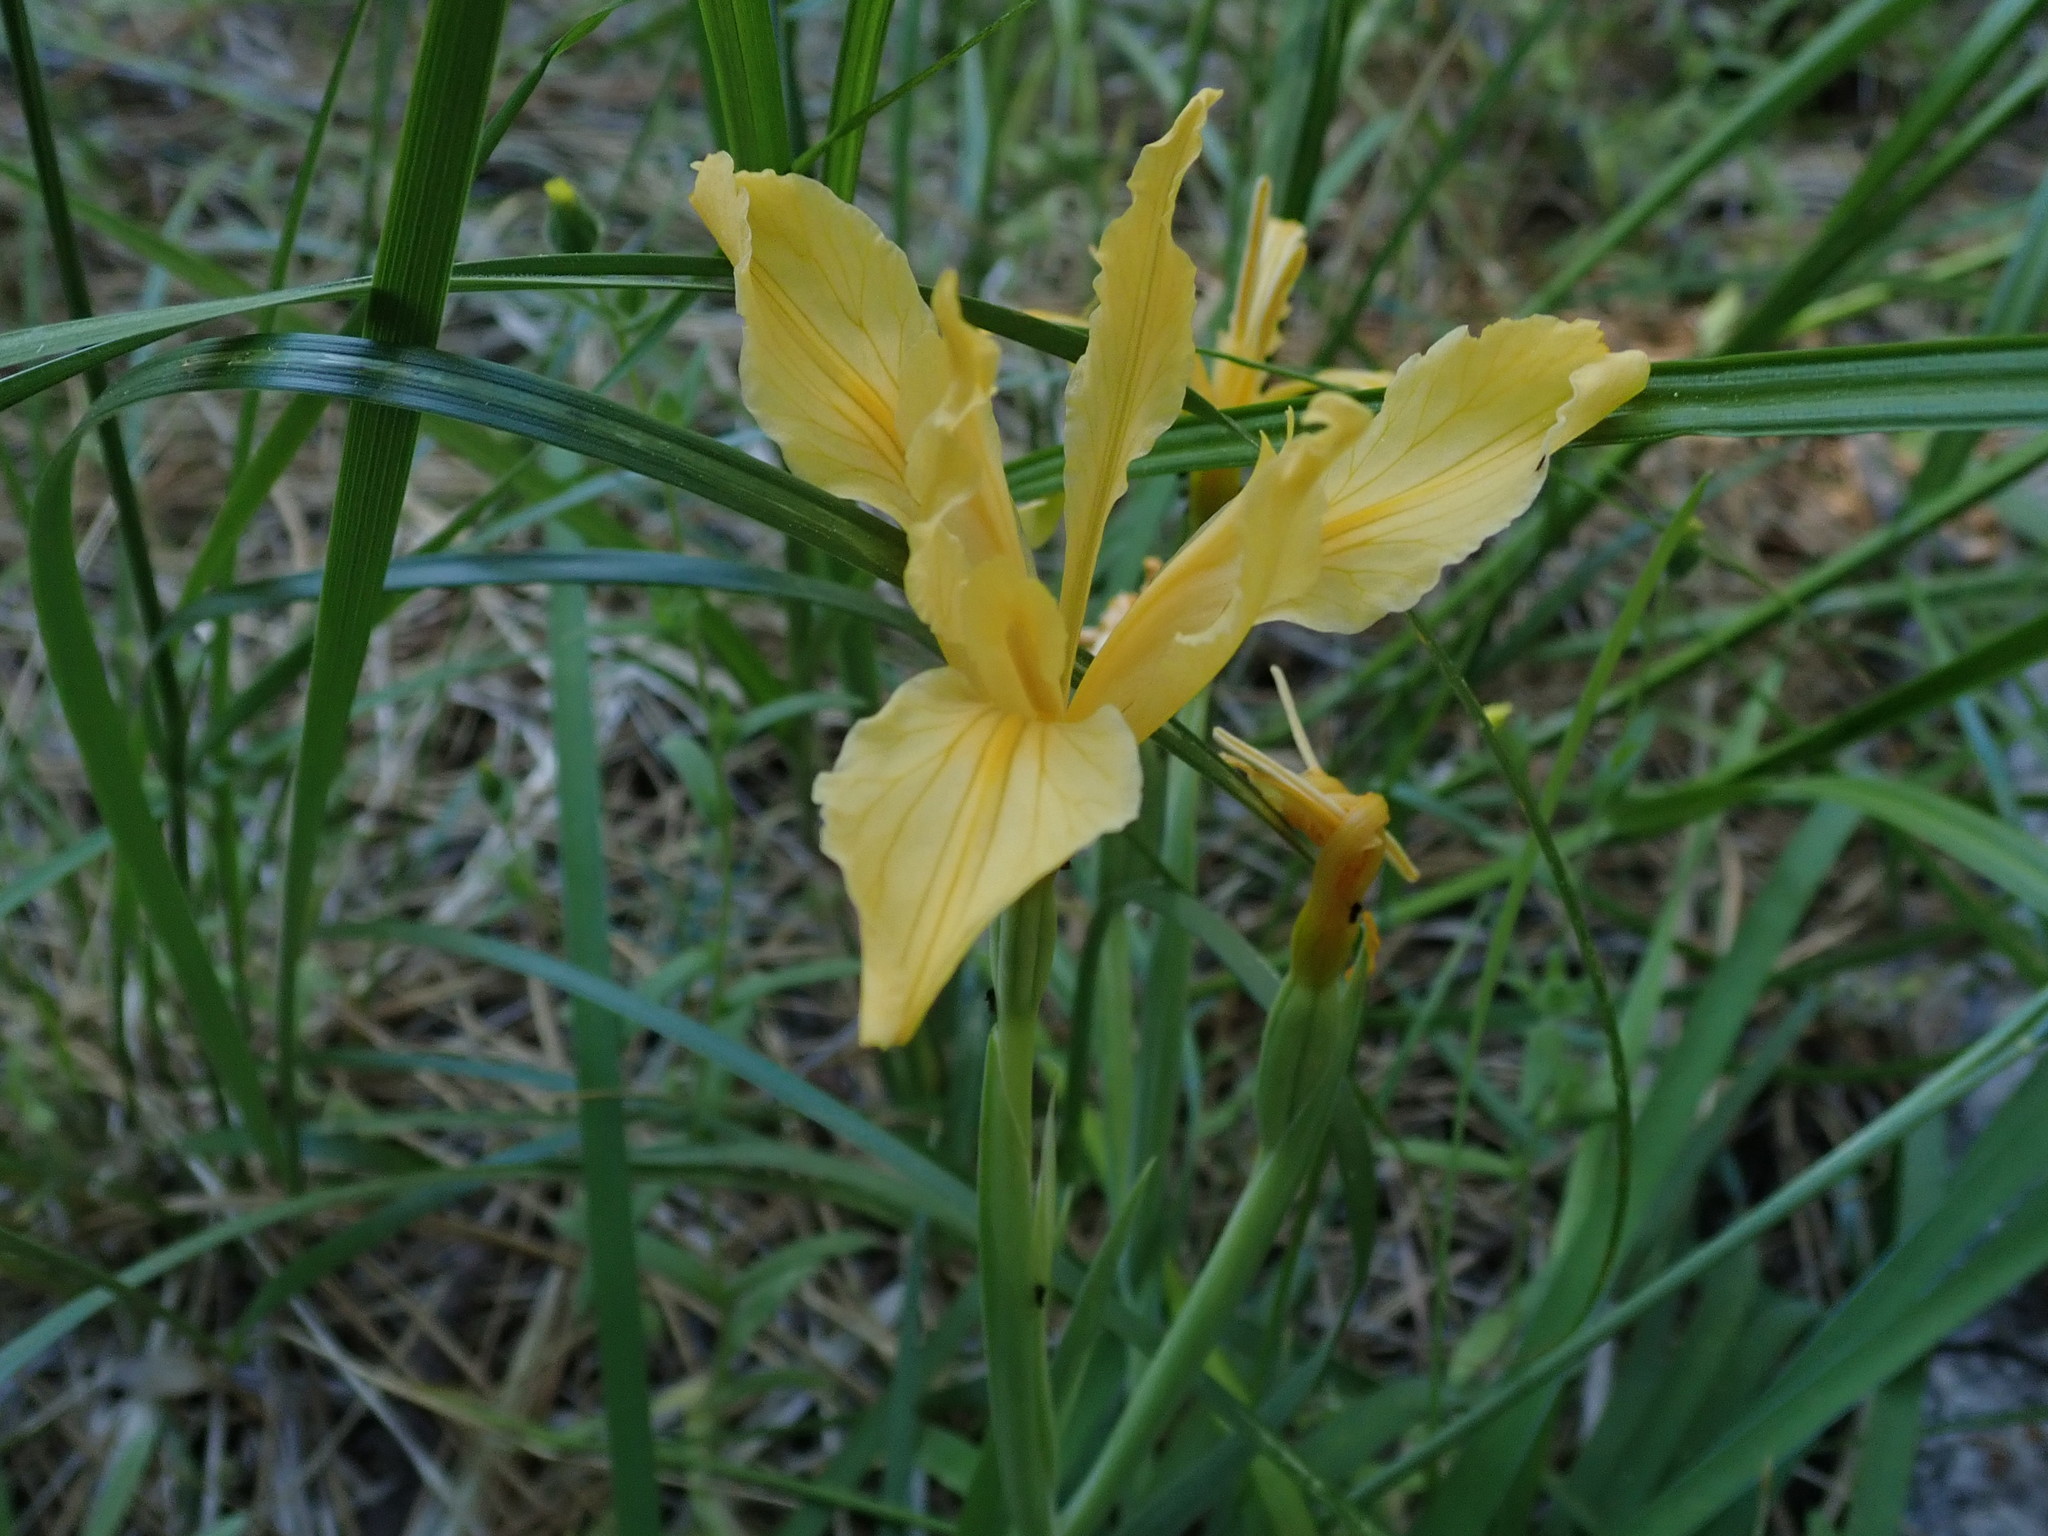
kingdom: Plantae
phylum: Tracheophyta
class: Liliopsida
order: Asparagales
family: Iridaceae
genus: Iris
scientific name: Iris hartwegii
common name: Sierra iris
